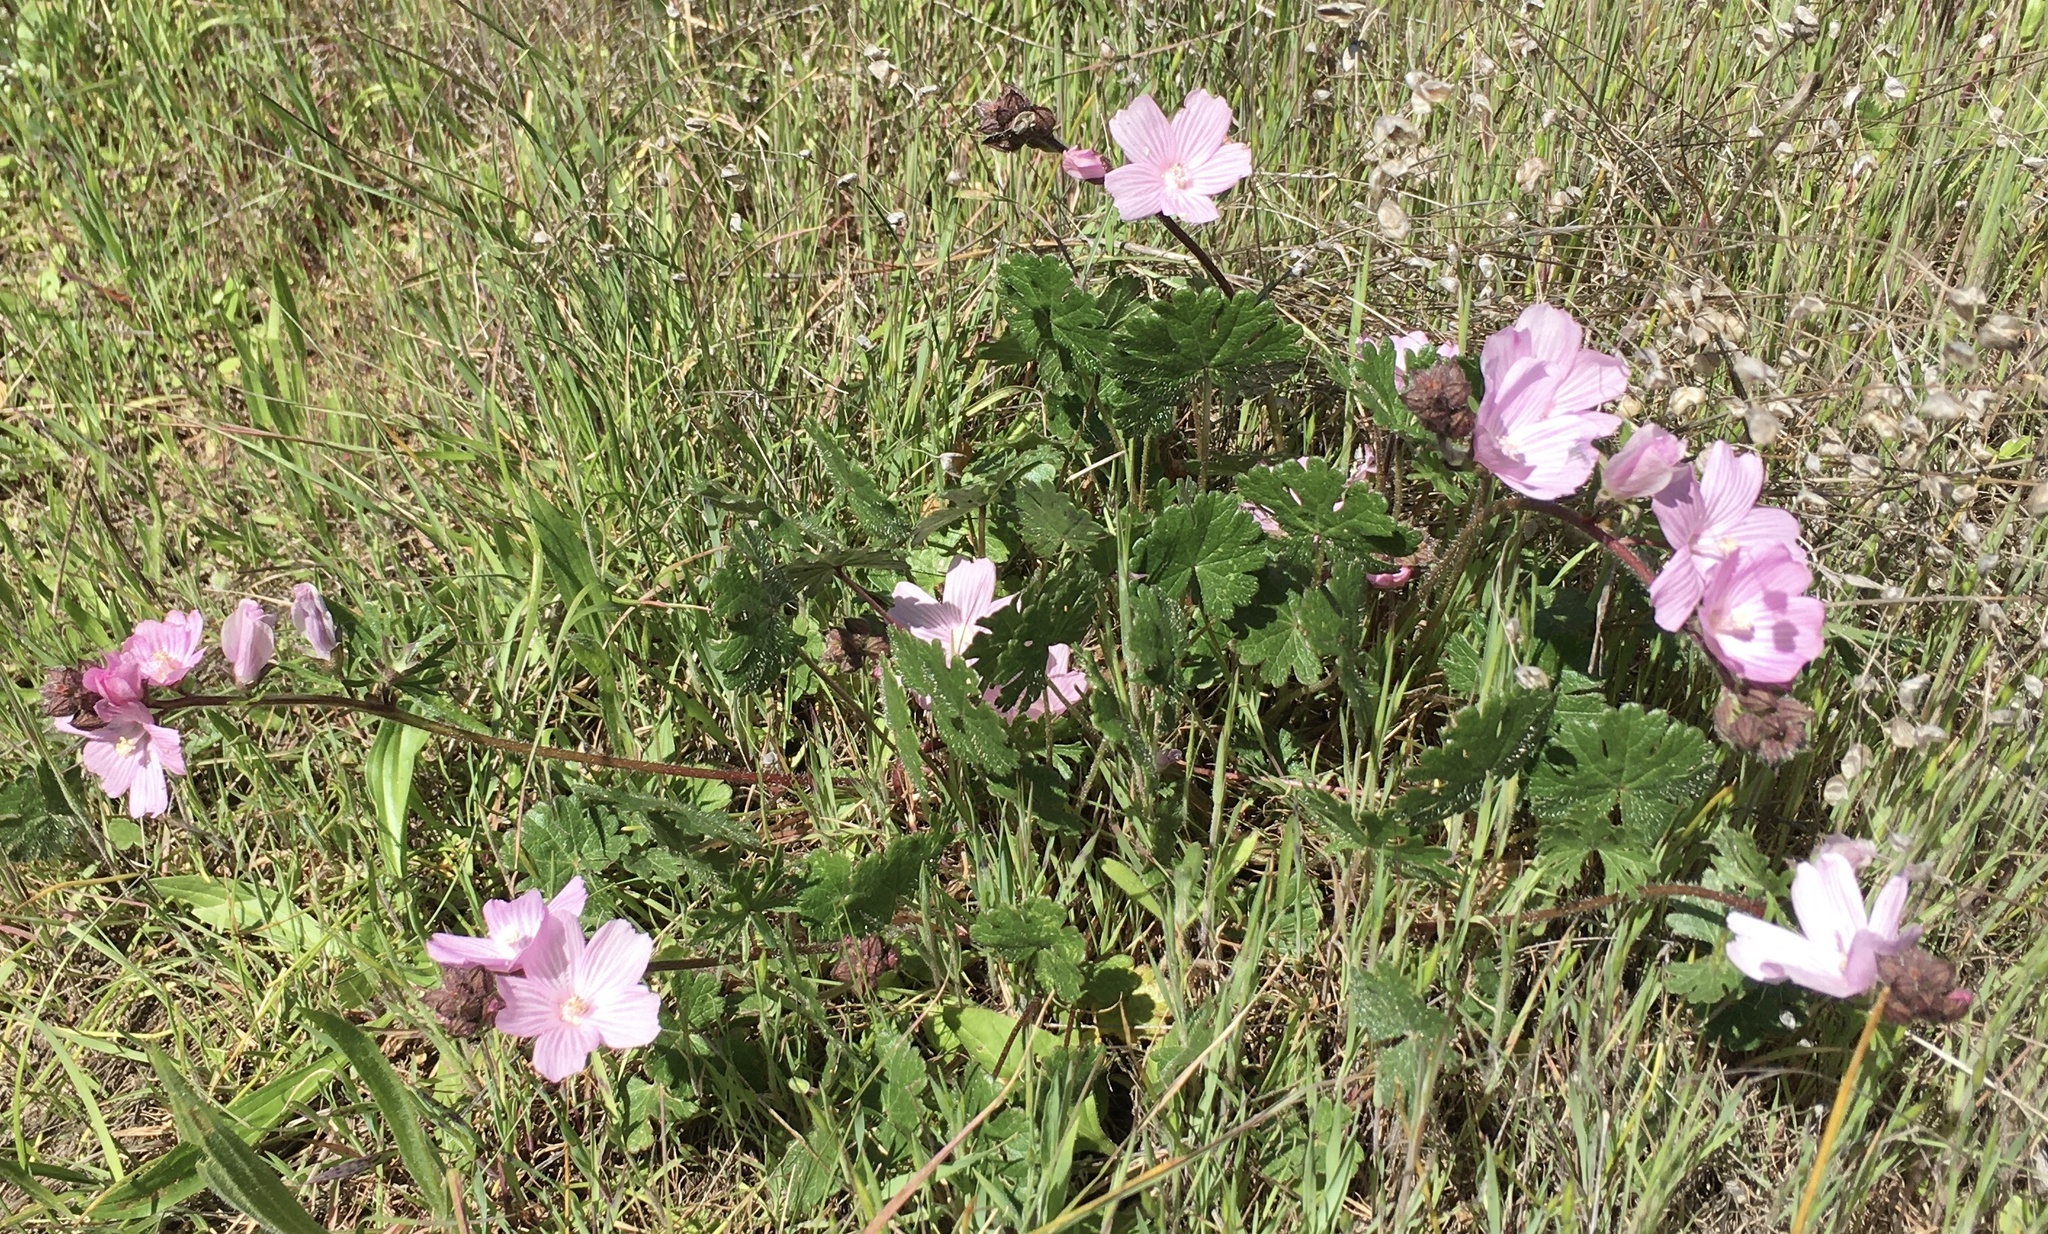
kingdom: Plantae
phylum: Tracheophyta
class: Magnoliopsida
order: Malvales
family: Malvaceae
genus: Sidalcea
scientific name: Sidalcea malviflora
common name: Greek mallow
